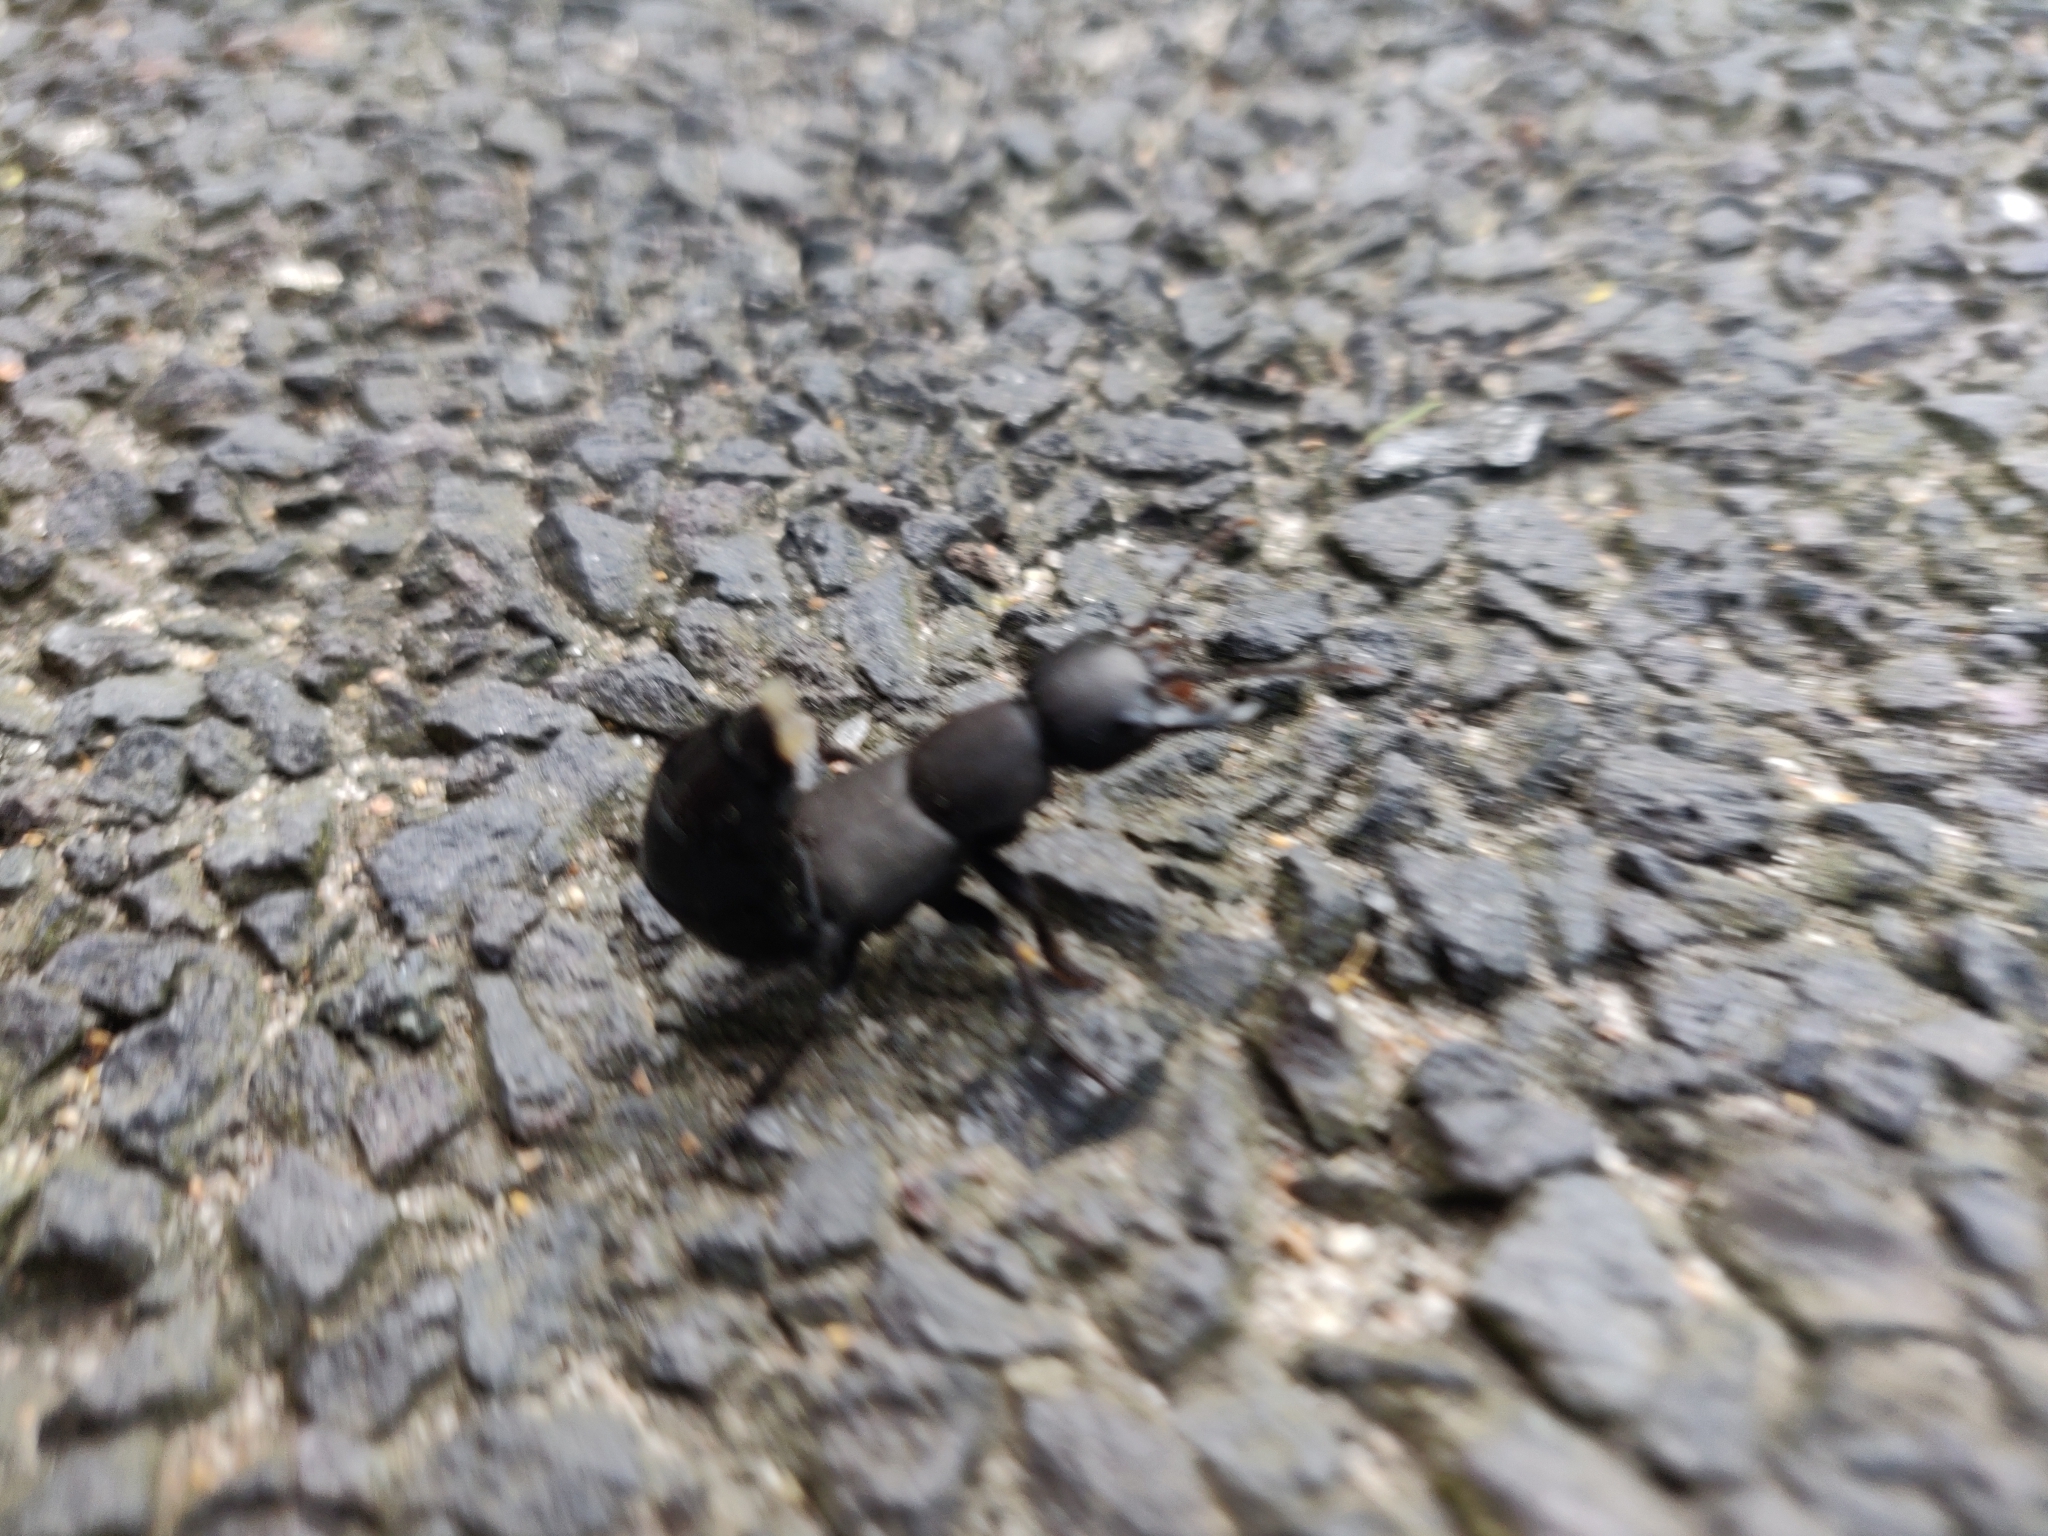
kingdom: Animalia
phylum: Arthropoda
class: Insecta
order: Coleoptera
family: Staphylinidae
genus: Ocypus
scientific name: Ocypus olens
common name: Devil's coach-horse
